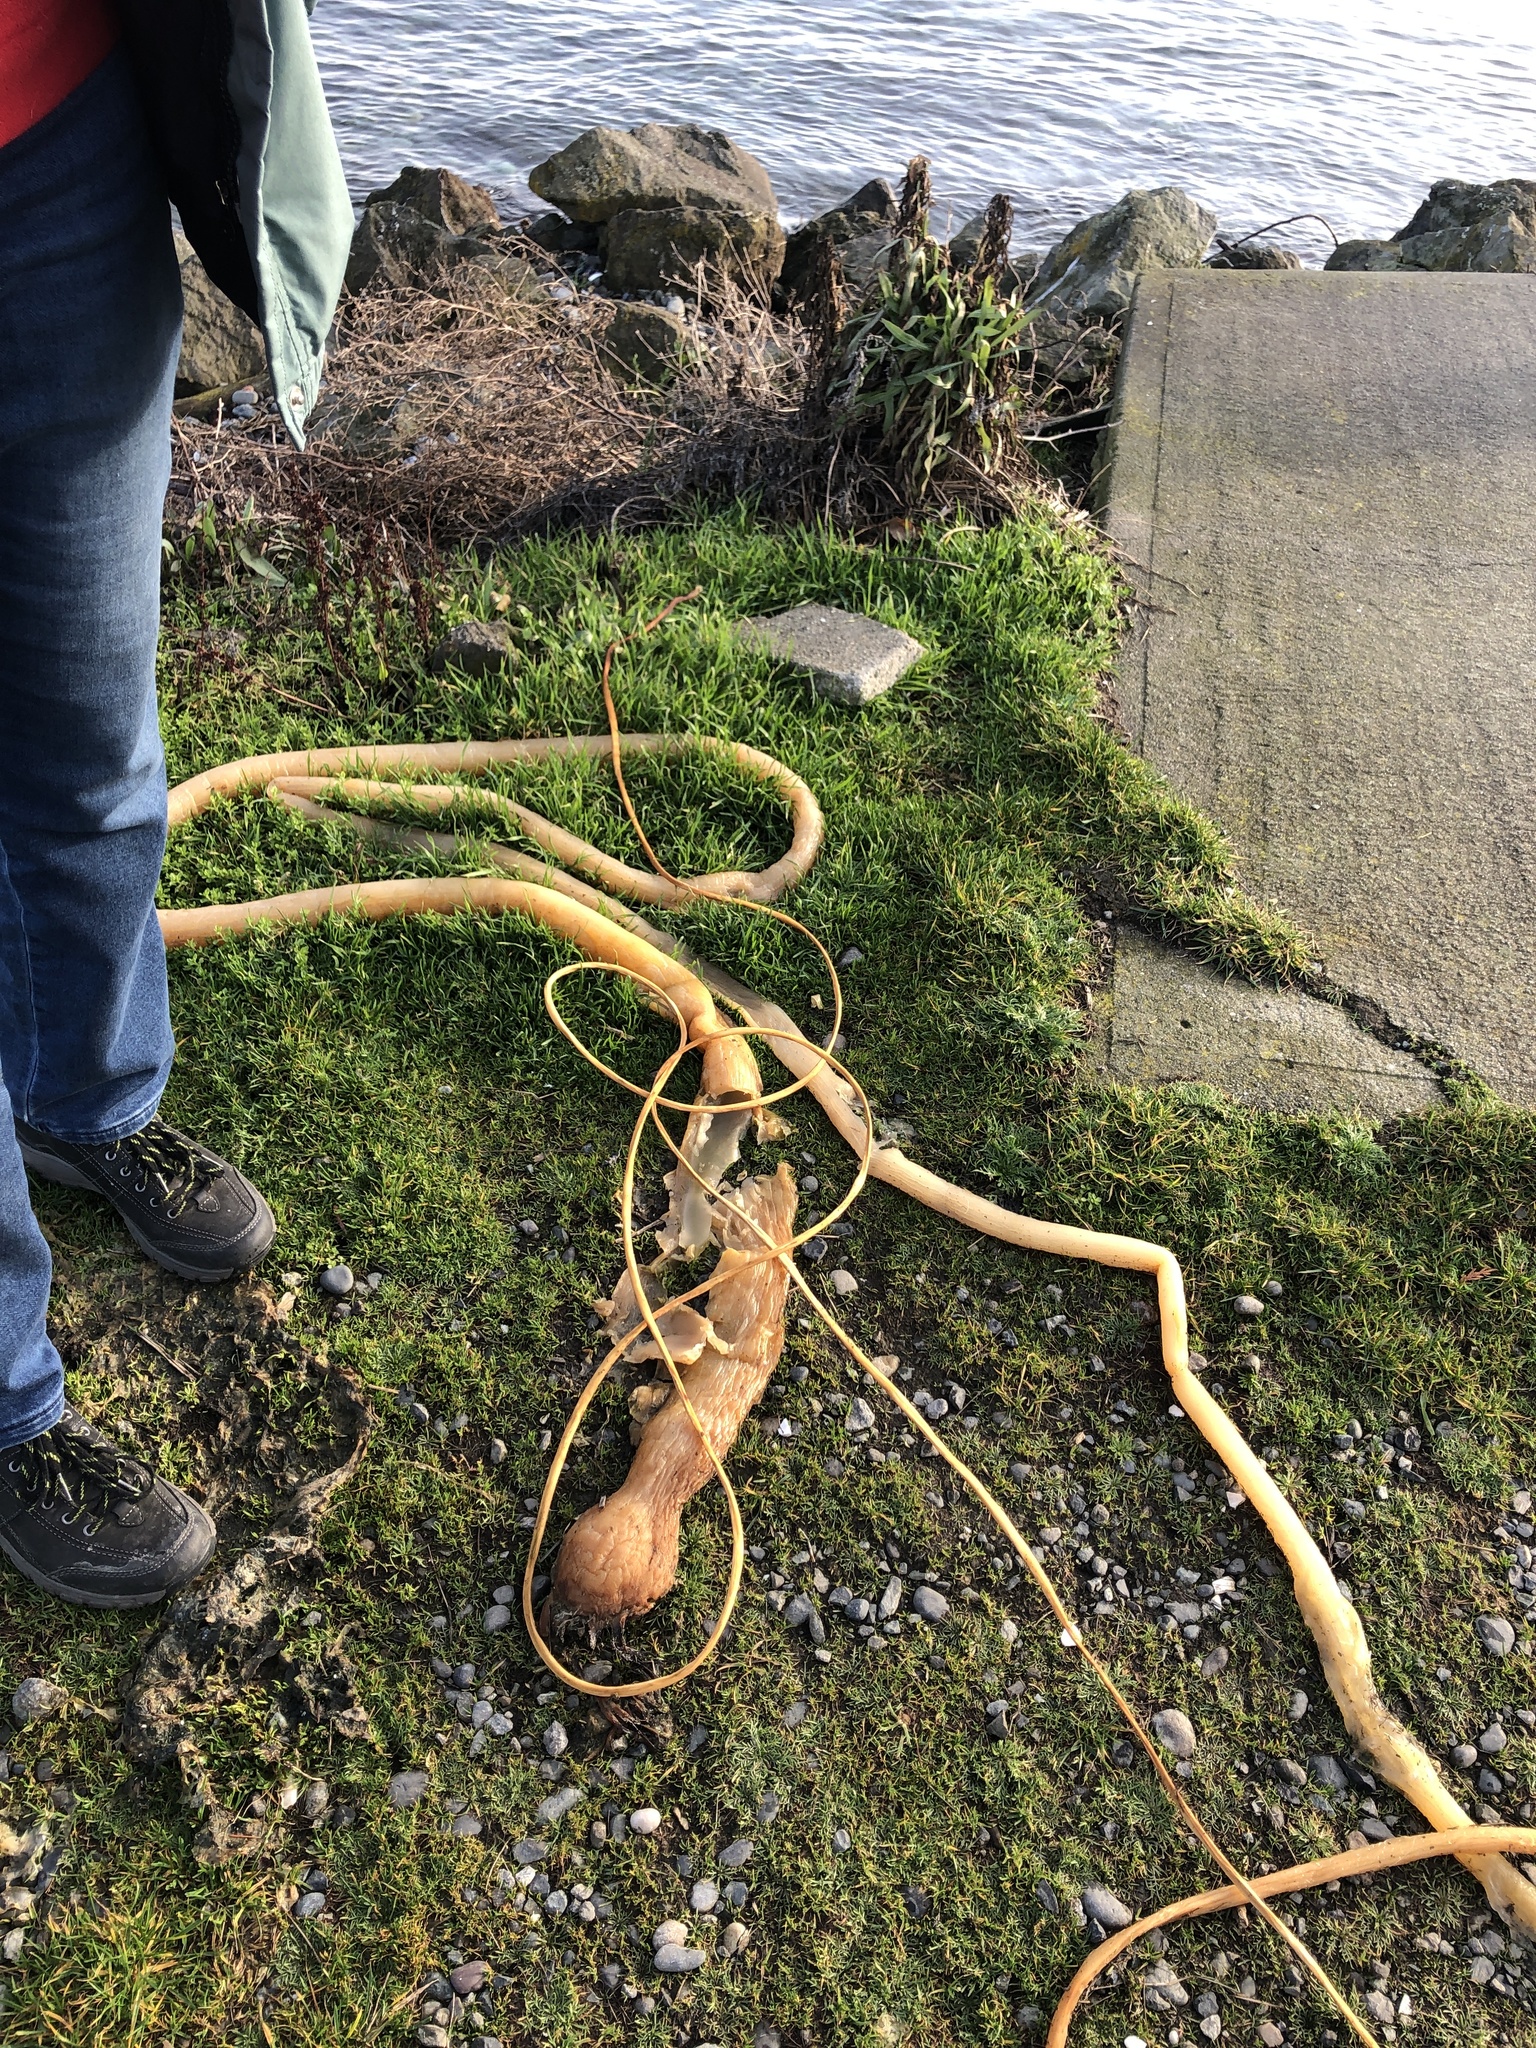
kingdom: Chromista
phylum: Ochrophyta
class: Phaeophyceae
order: Laminariales
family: Laminariaceae
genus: Nereocystis
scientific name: Nereocystis luetkeana
